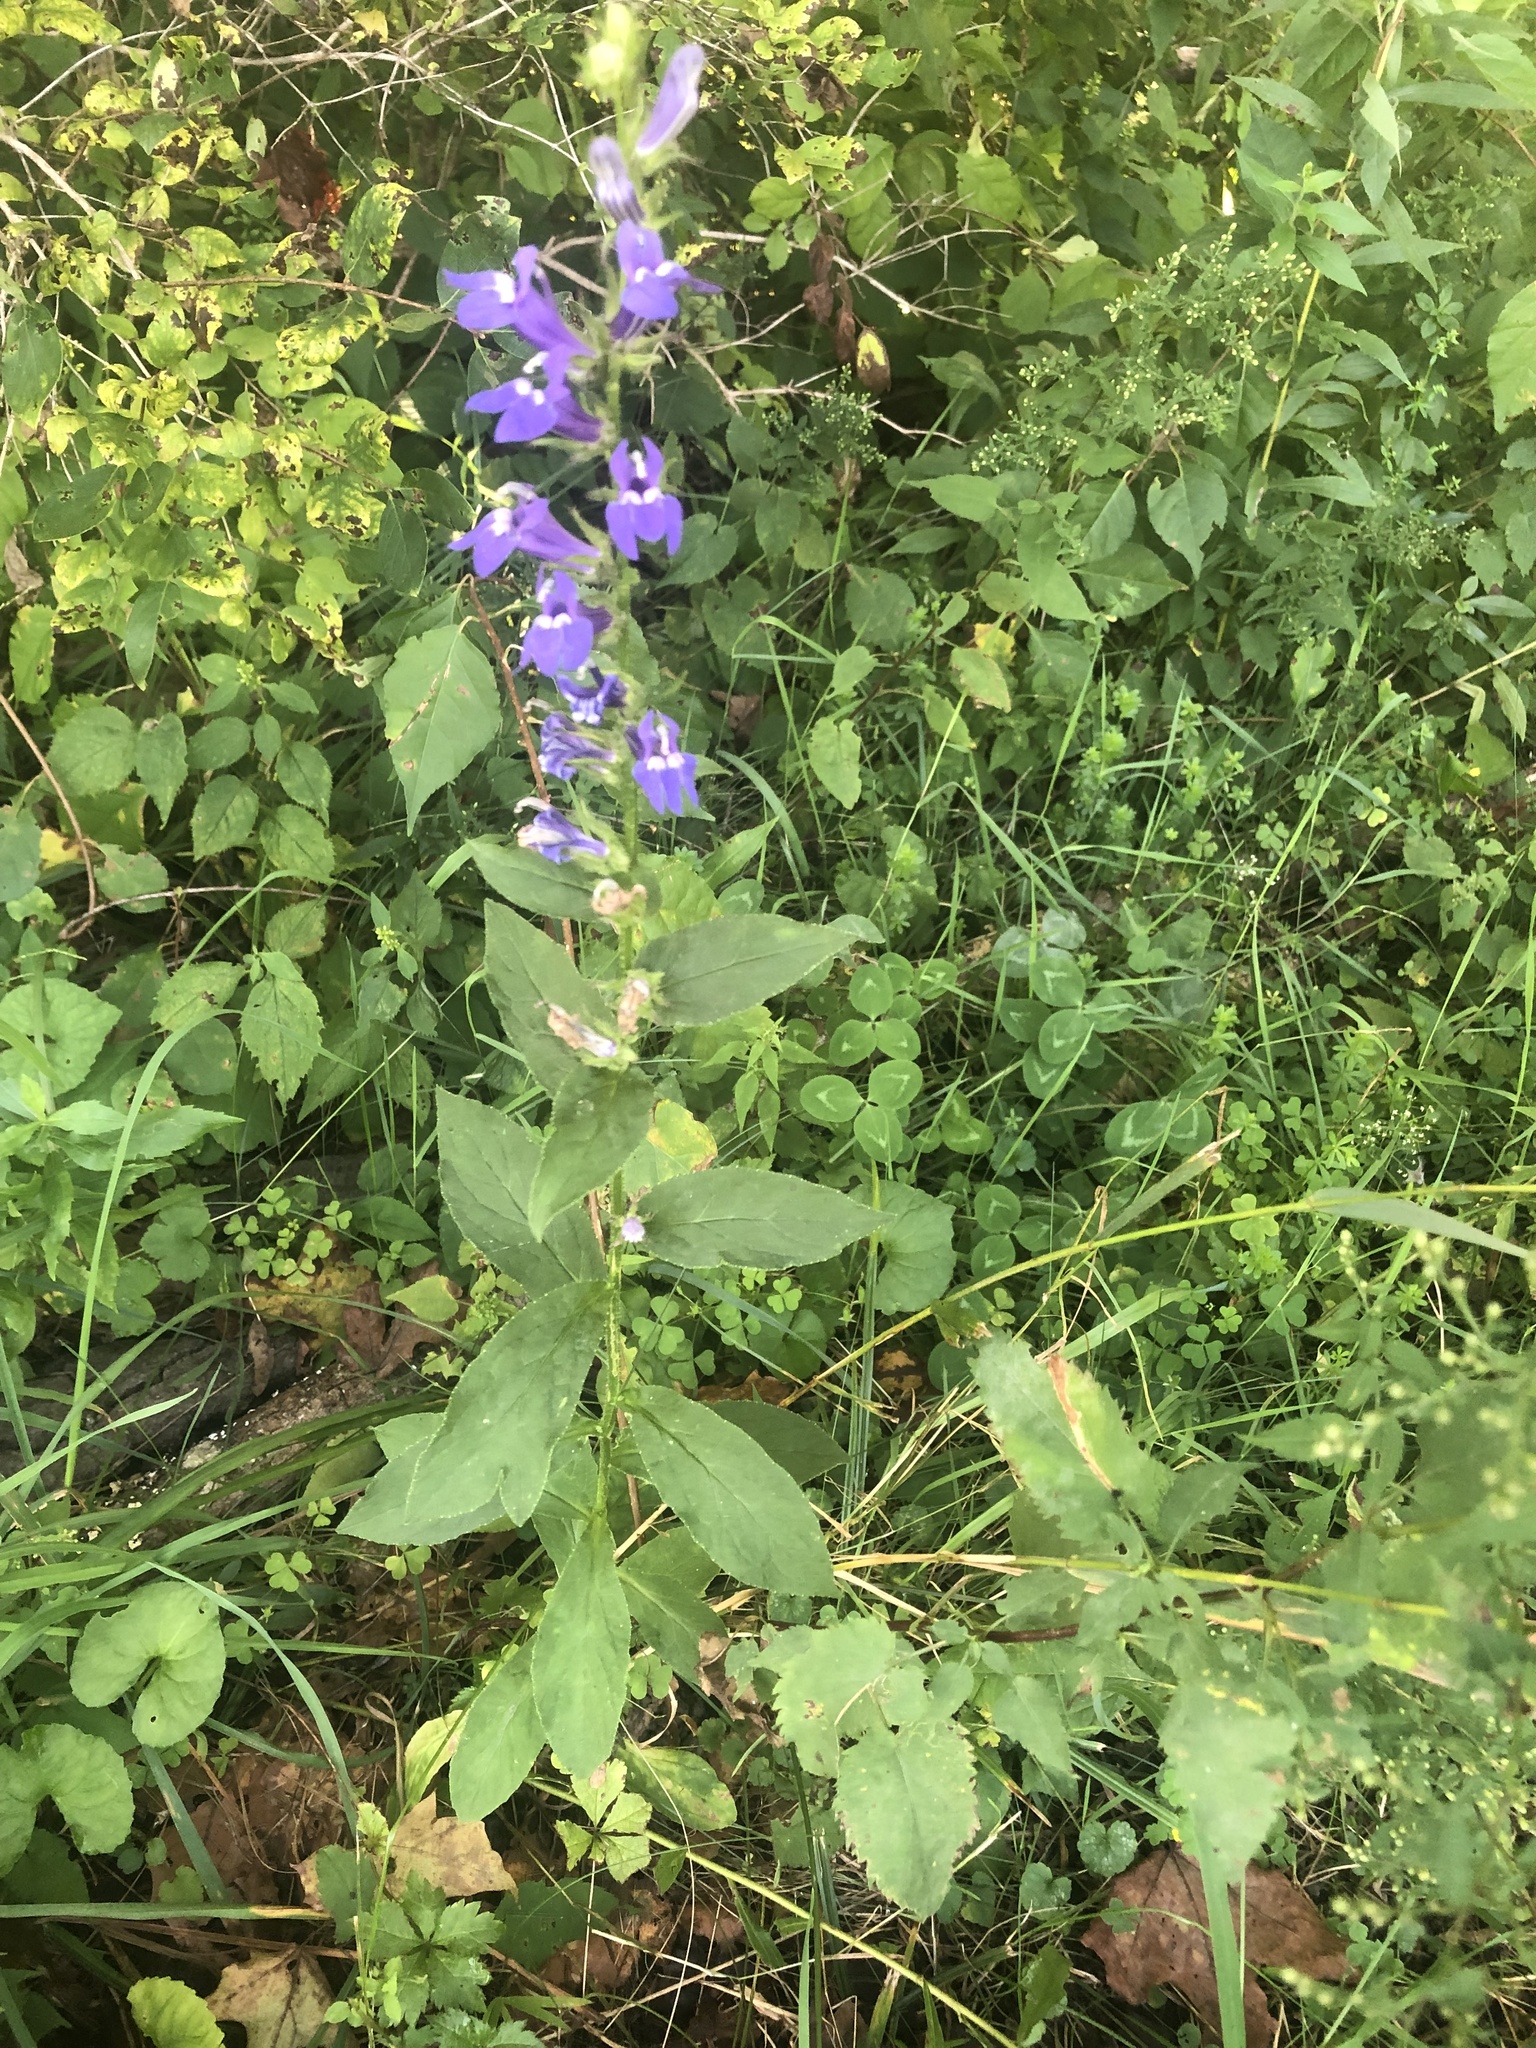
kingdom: Plantae
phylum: Tracheophyta
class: Magnoliopsida
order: Asterales
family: Campanulaceae
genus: Lobelia
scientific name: Lobelia siphilitica
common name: Great lobelia
